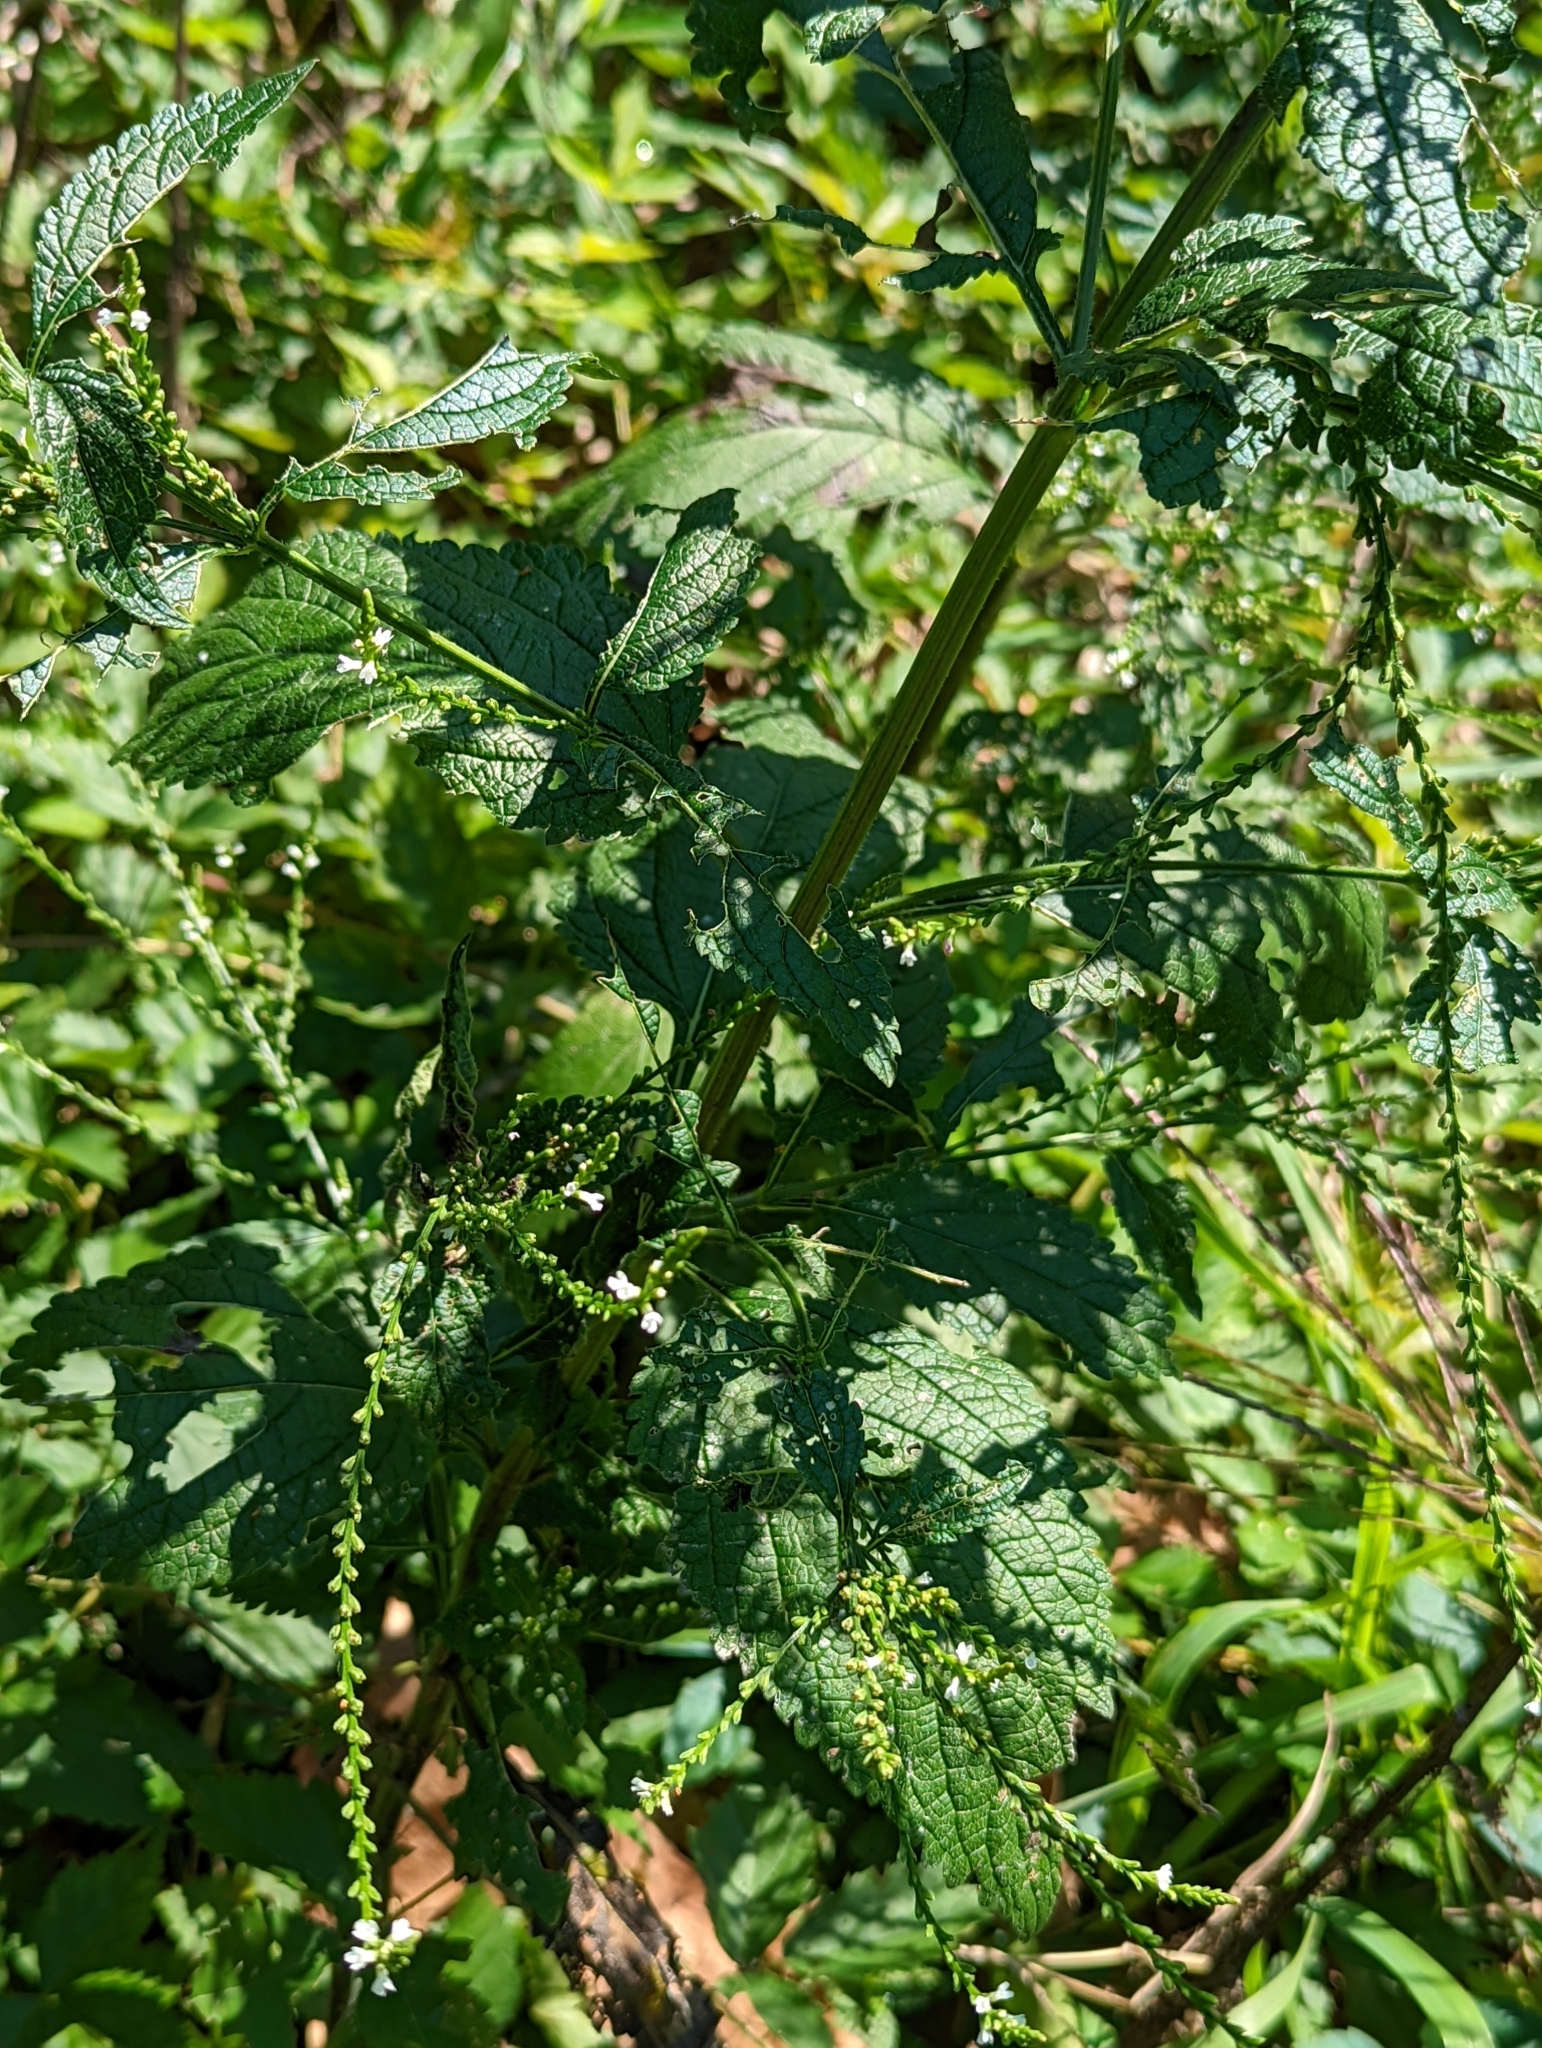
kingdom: Plantae
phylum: Tracheophyta
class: Magnoliopsida
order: Lamiales
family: Verbenaceae
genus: Verbena
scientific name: Verbena urticifolia
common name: Nettle-leaved vervain
